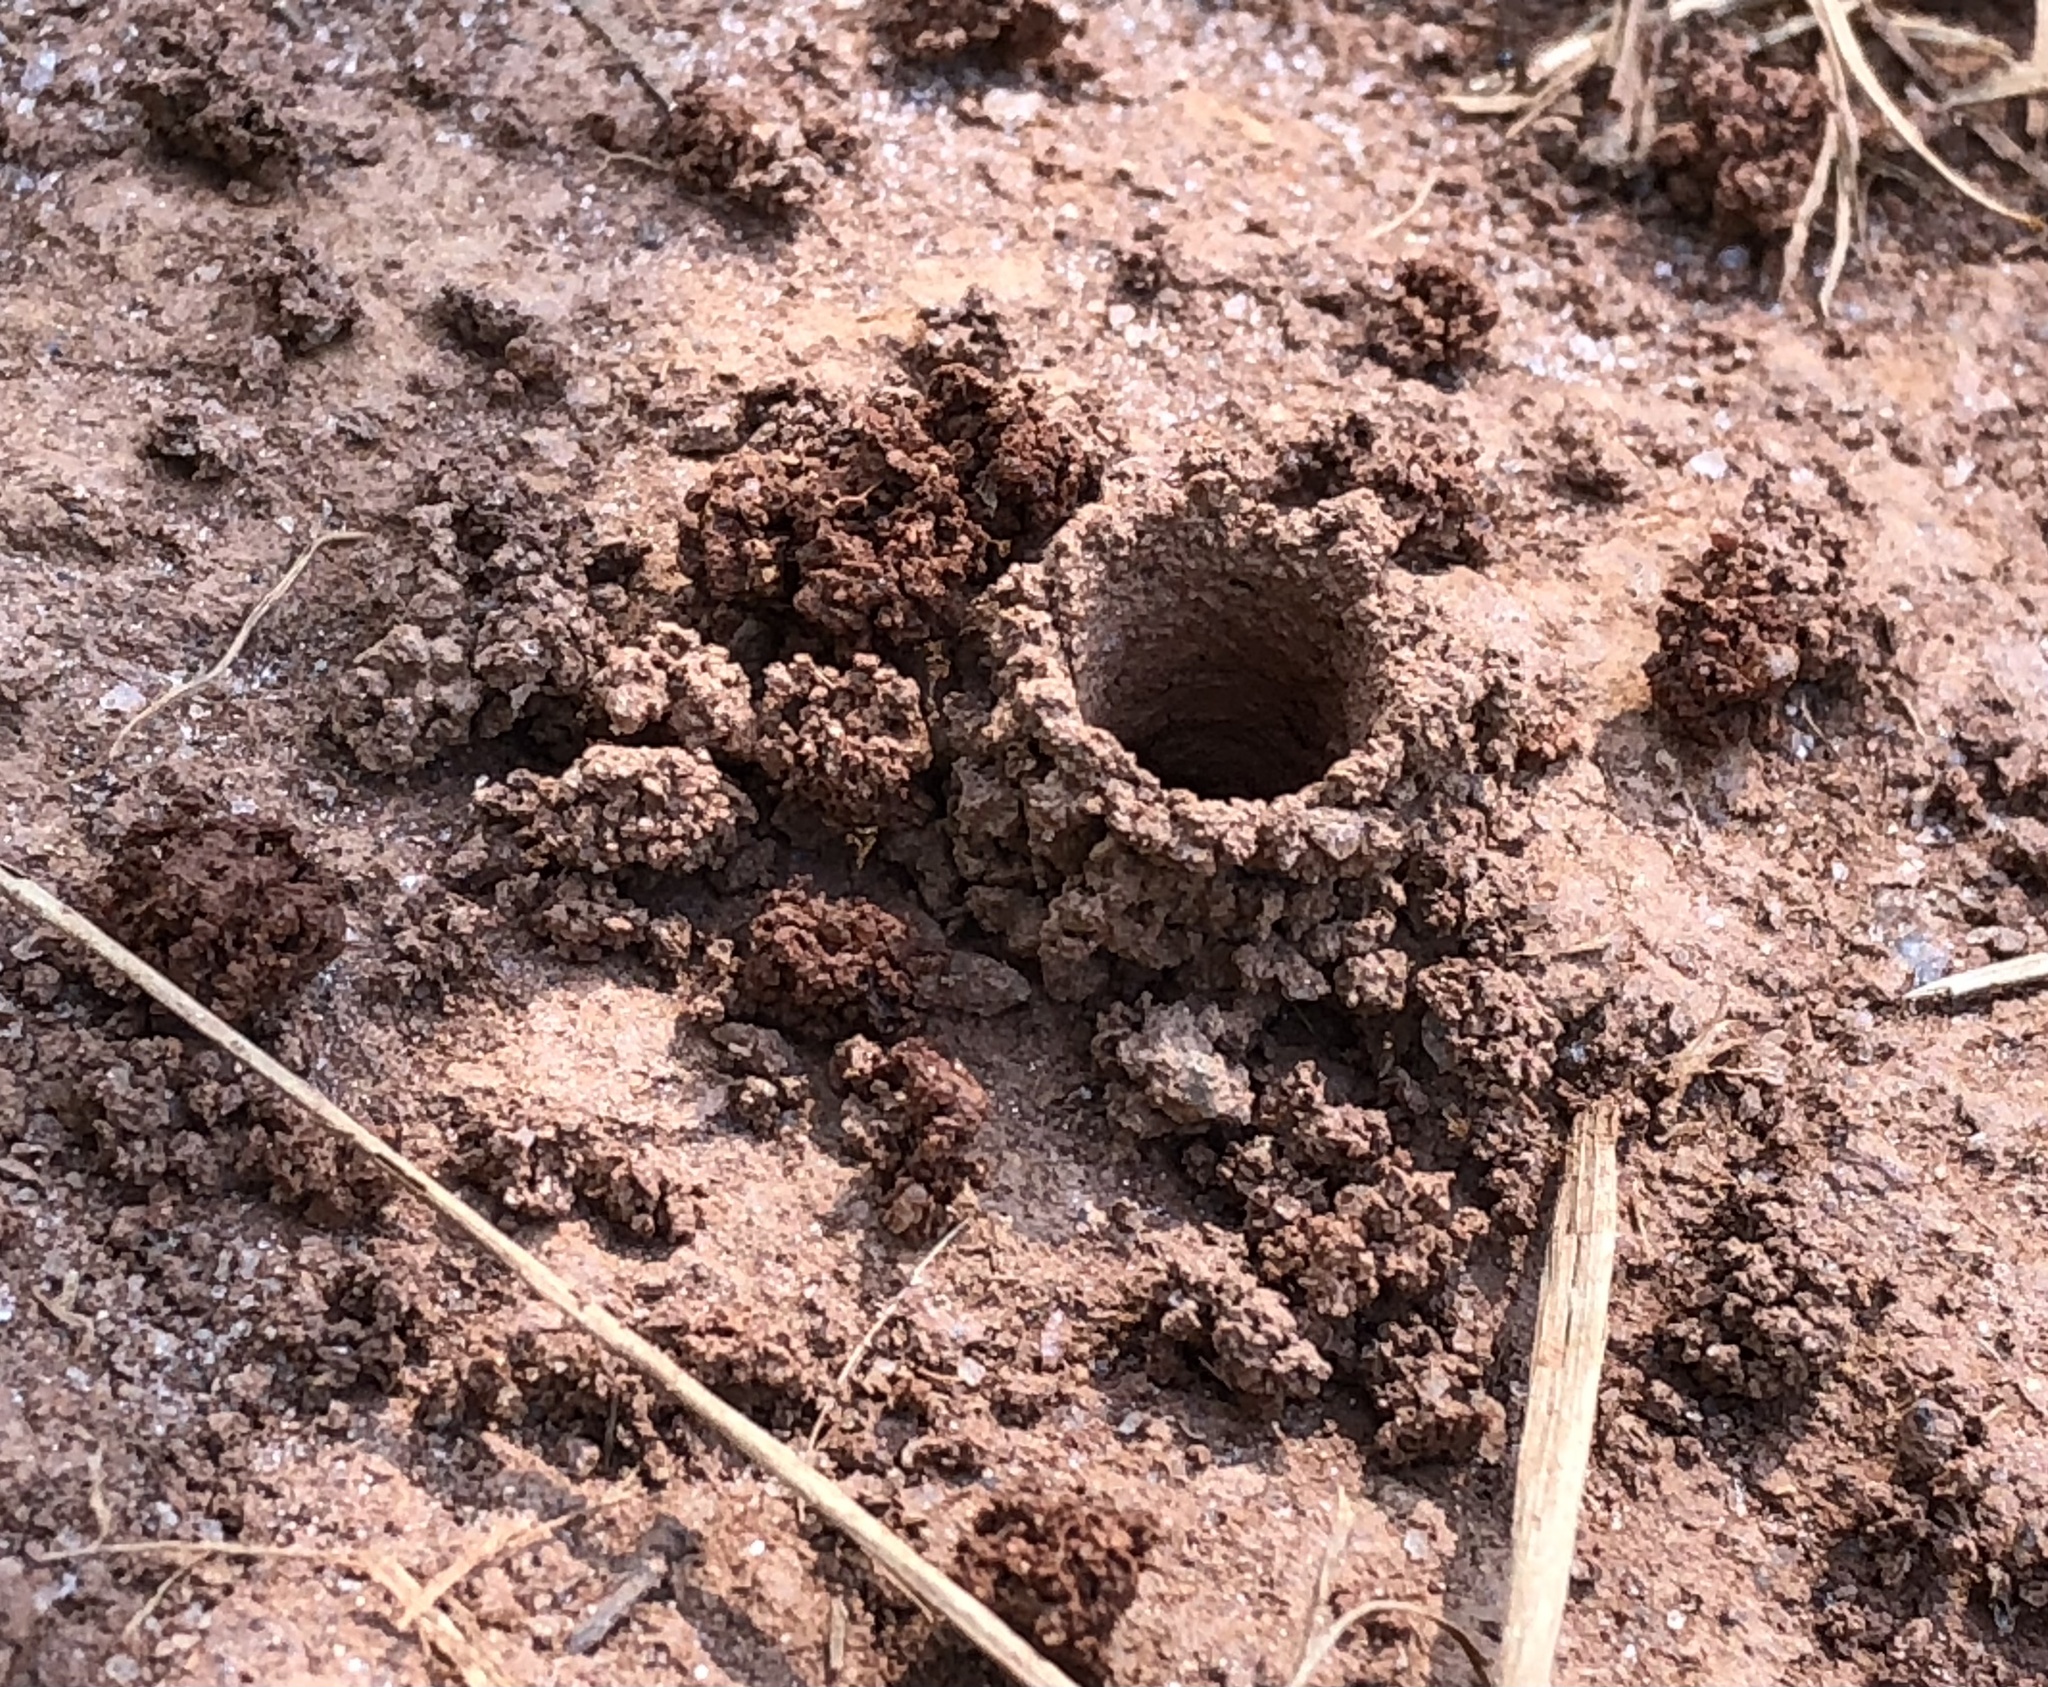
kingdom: Animalia
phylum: Arthropoda
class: Insecta
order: Hymenoptera
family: Apidae
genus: Ptilothrix
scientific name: Ptilothrix bombiformis
